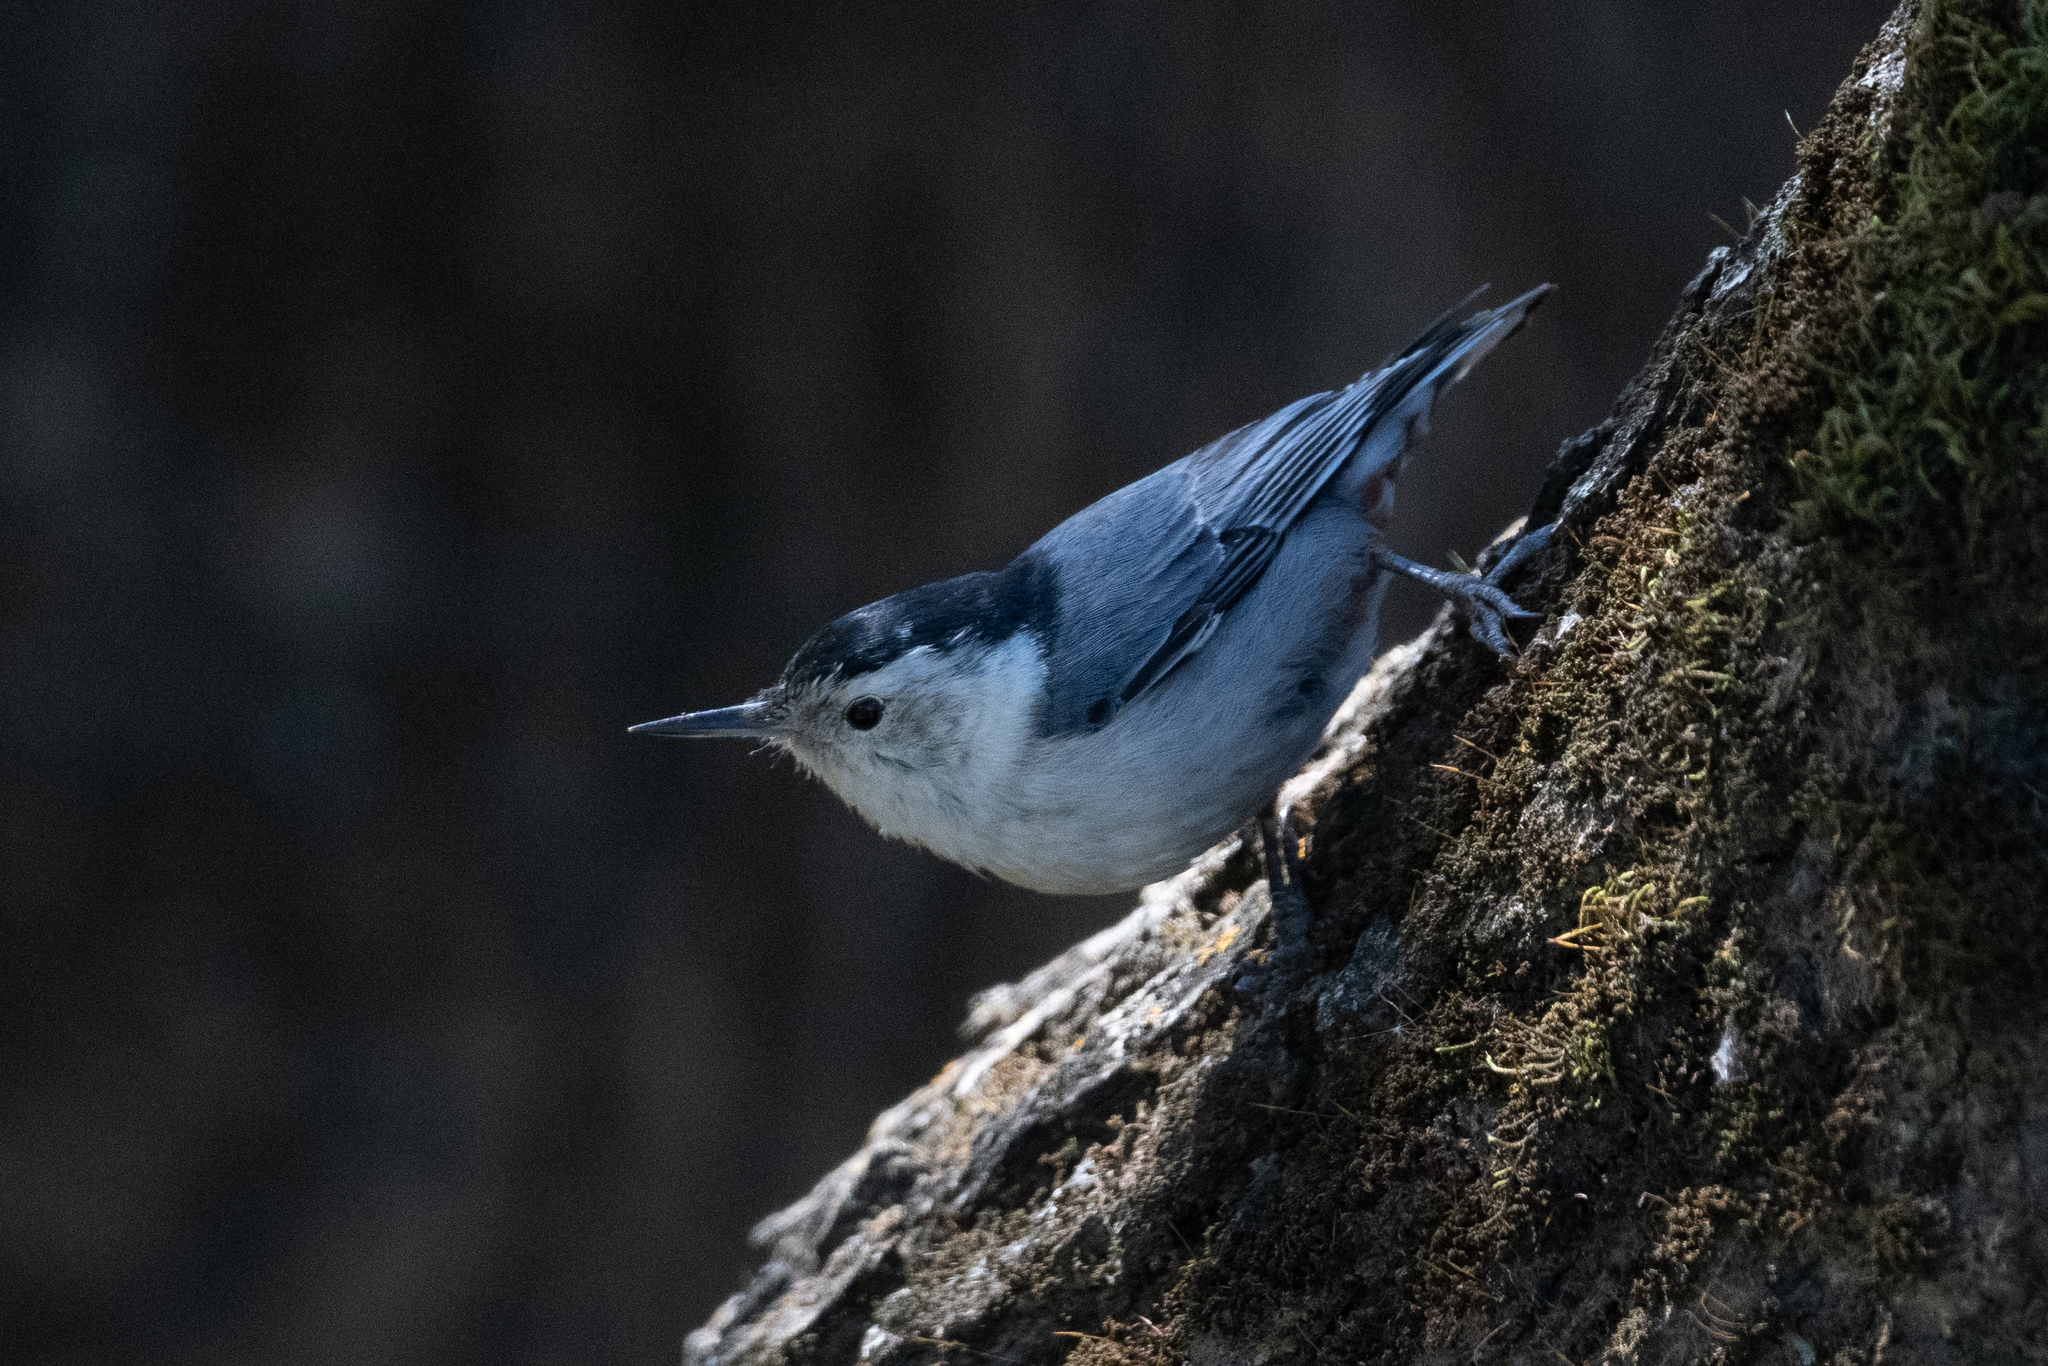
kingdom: Animalia
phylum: Chordata
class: Aves
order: Passeriformes
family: Sittidae
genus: Sitta
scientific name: Sitta carolinensis
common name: White-breasted nuthatch
